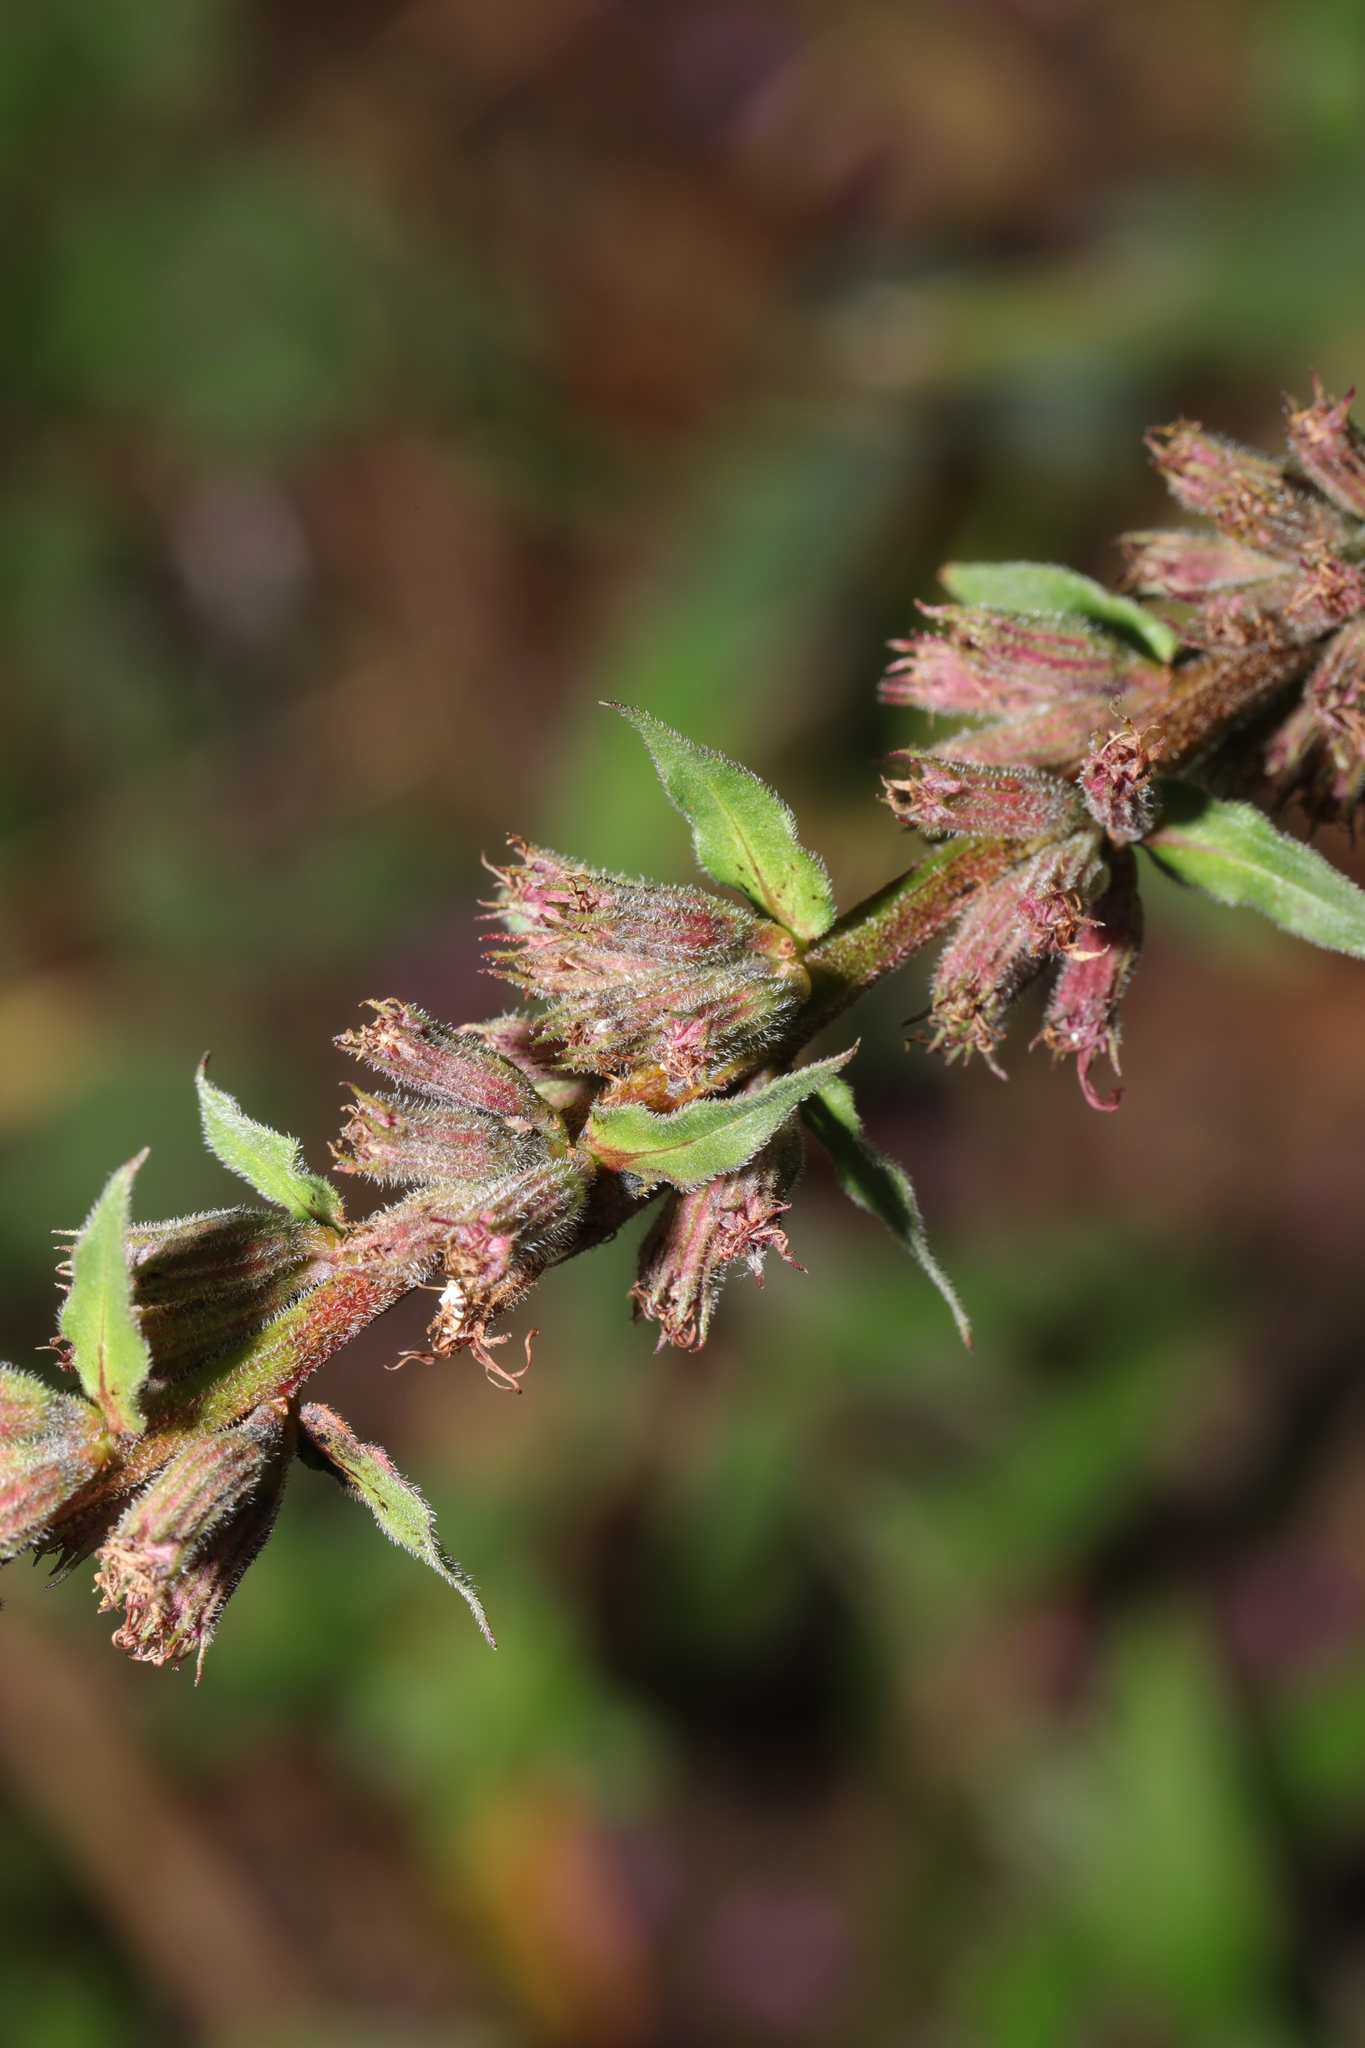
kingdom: Plantae
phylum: Tracheophyta
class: Magnoliopsida
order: Myrtales
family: Lythraceae
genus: Lythrum
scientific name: Lythrum salicaria
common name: Purple loosestrife
